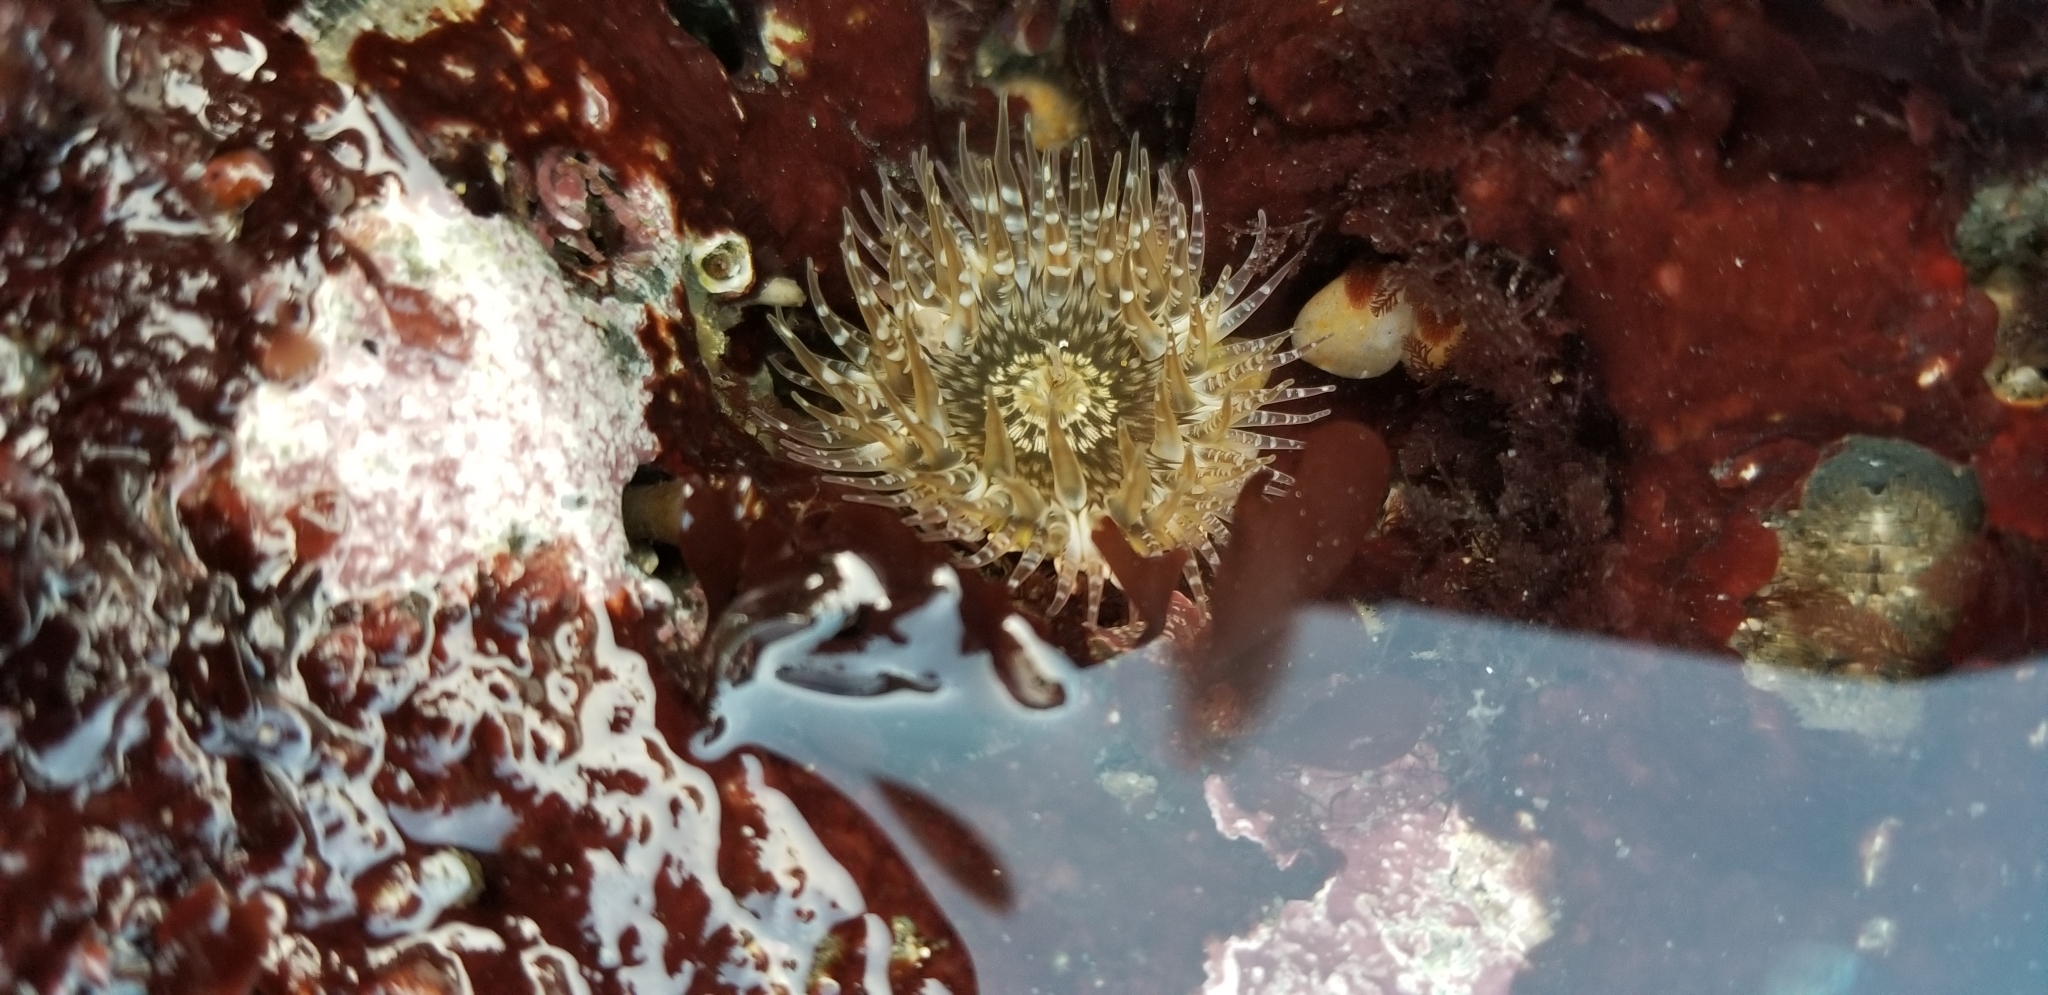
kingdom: Animalia
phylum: Cnidaria
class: Anthozoa
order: Actiniaria
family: Actiniidae
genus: Anthopleura
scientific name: Anthopleura artemisia
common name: Buried sea anemone
